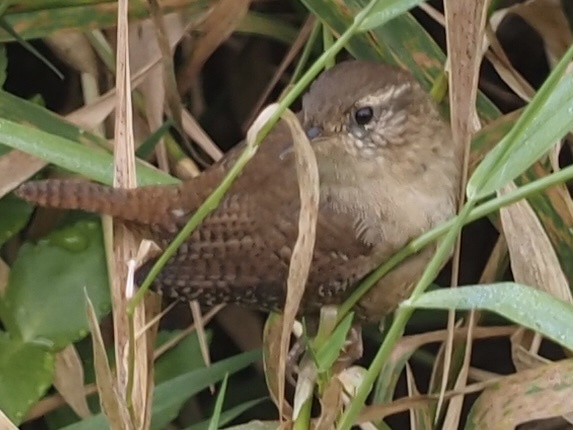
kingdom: Animalia
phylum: Chordata
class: Aves
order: Passeriformes
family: Troglodytidae
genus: Troglodytes
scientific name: Troglodytes troglodytes
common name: Eurasian wren
